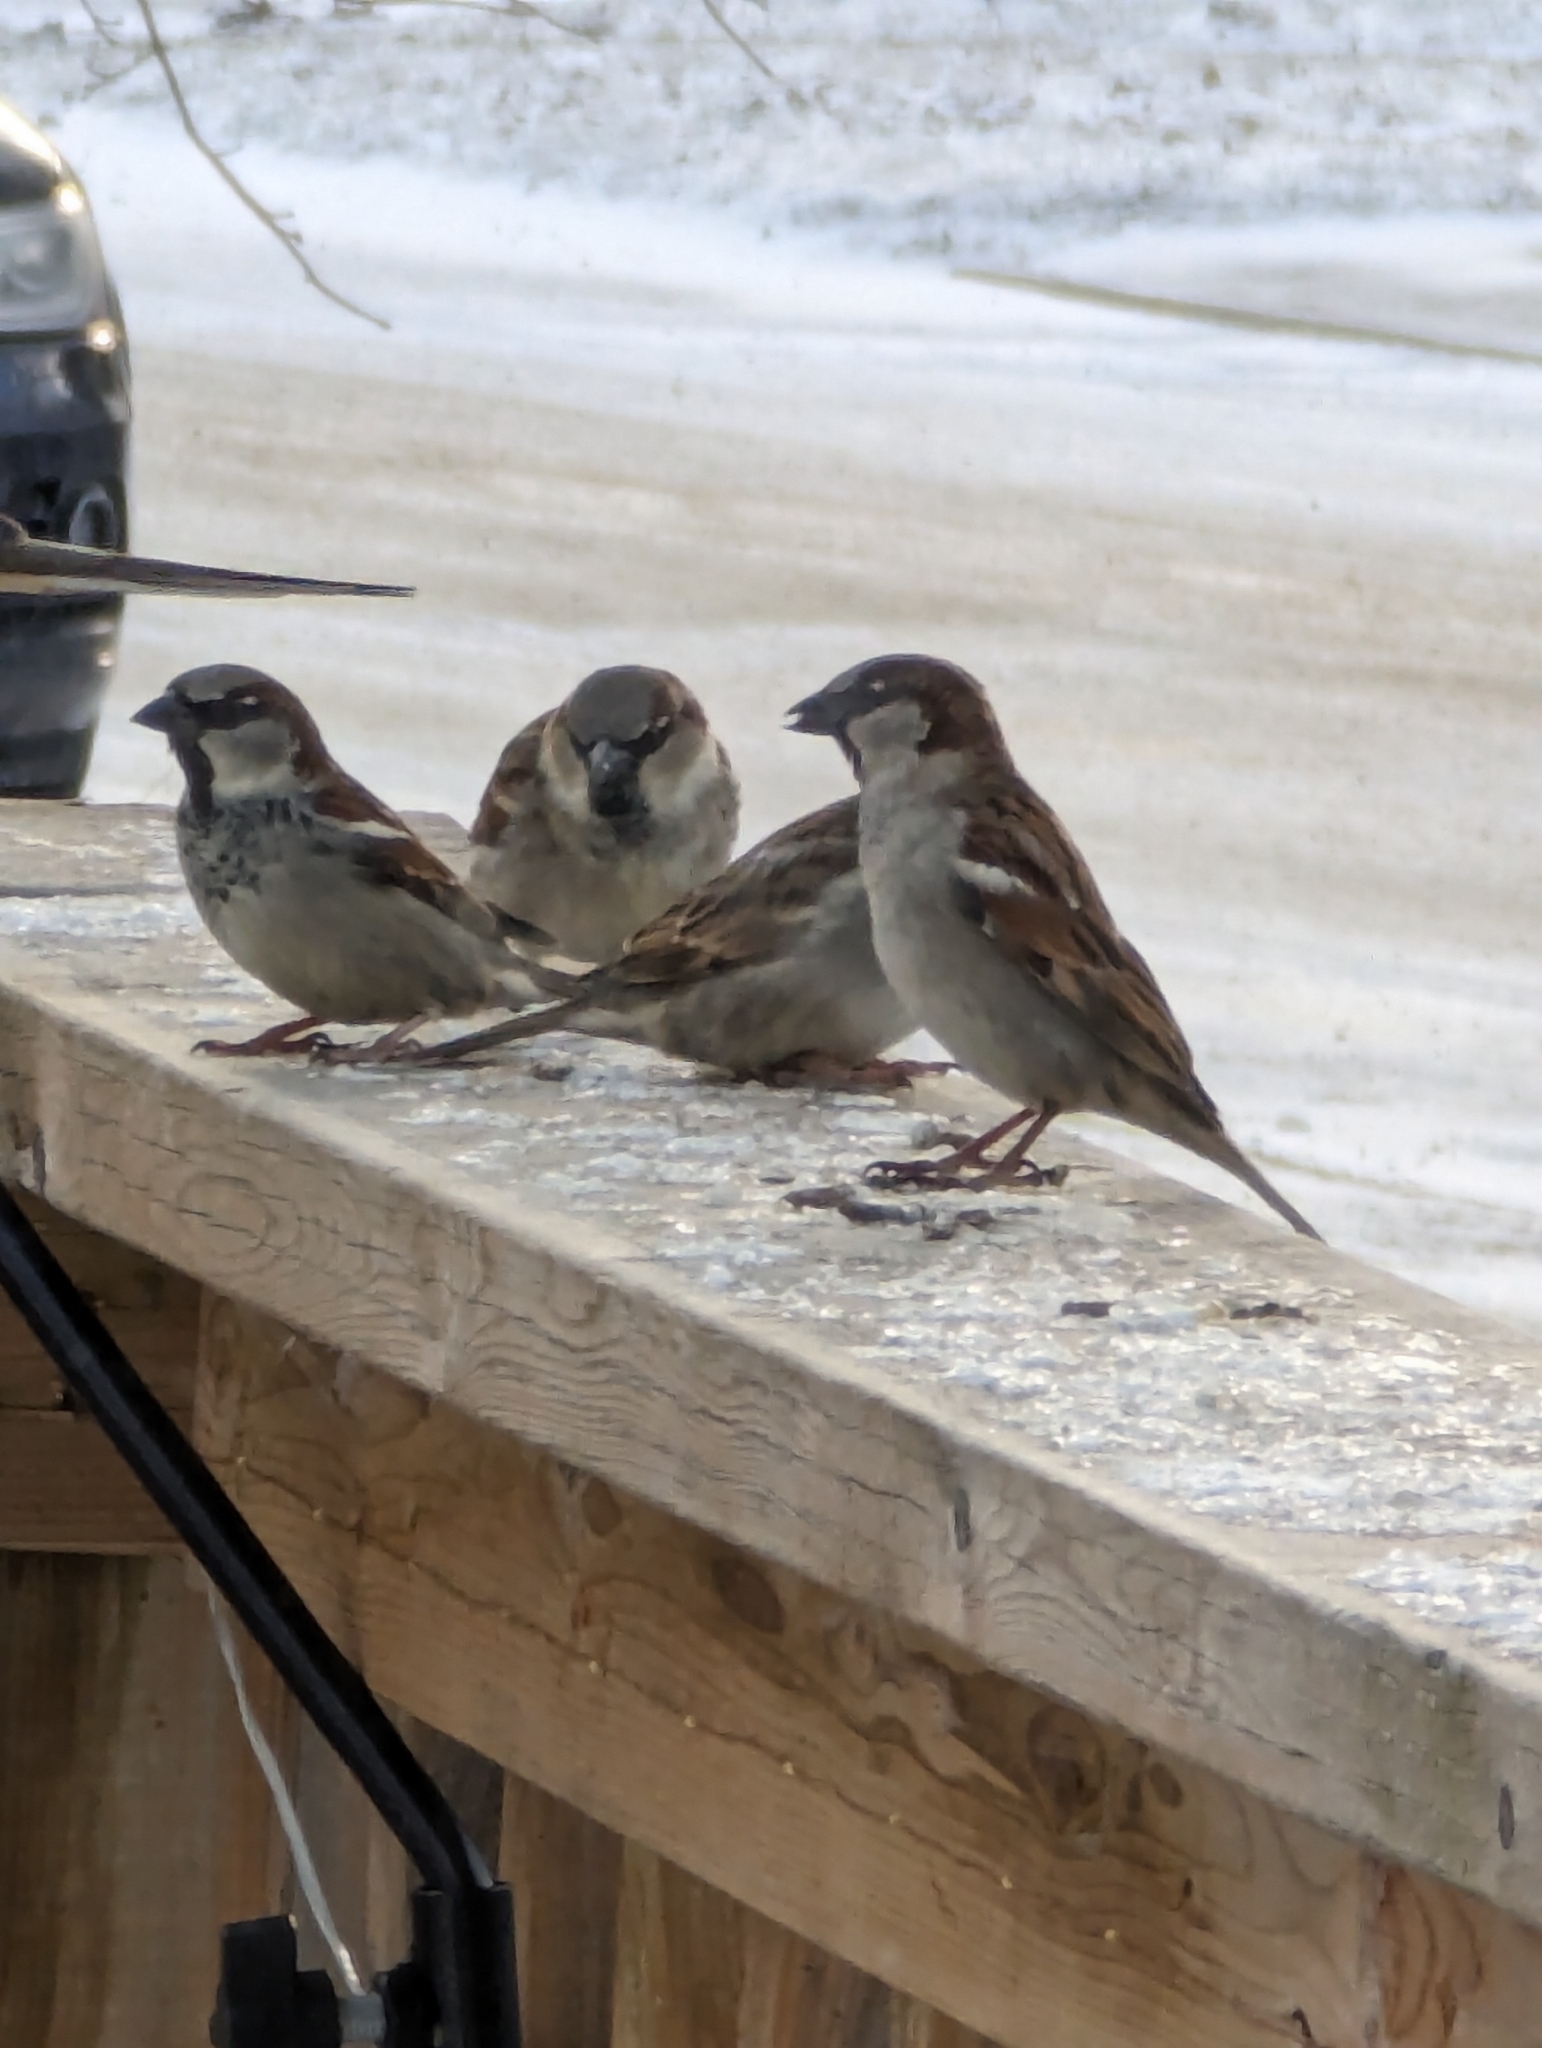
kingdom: Animalia
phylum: Chordata
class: Aves
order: Passeriformes
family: Passeridae
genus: Passer
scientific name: Passer domesticus
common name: House sparrow
